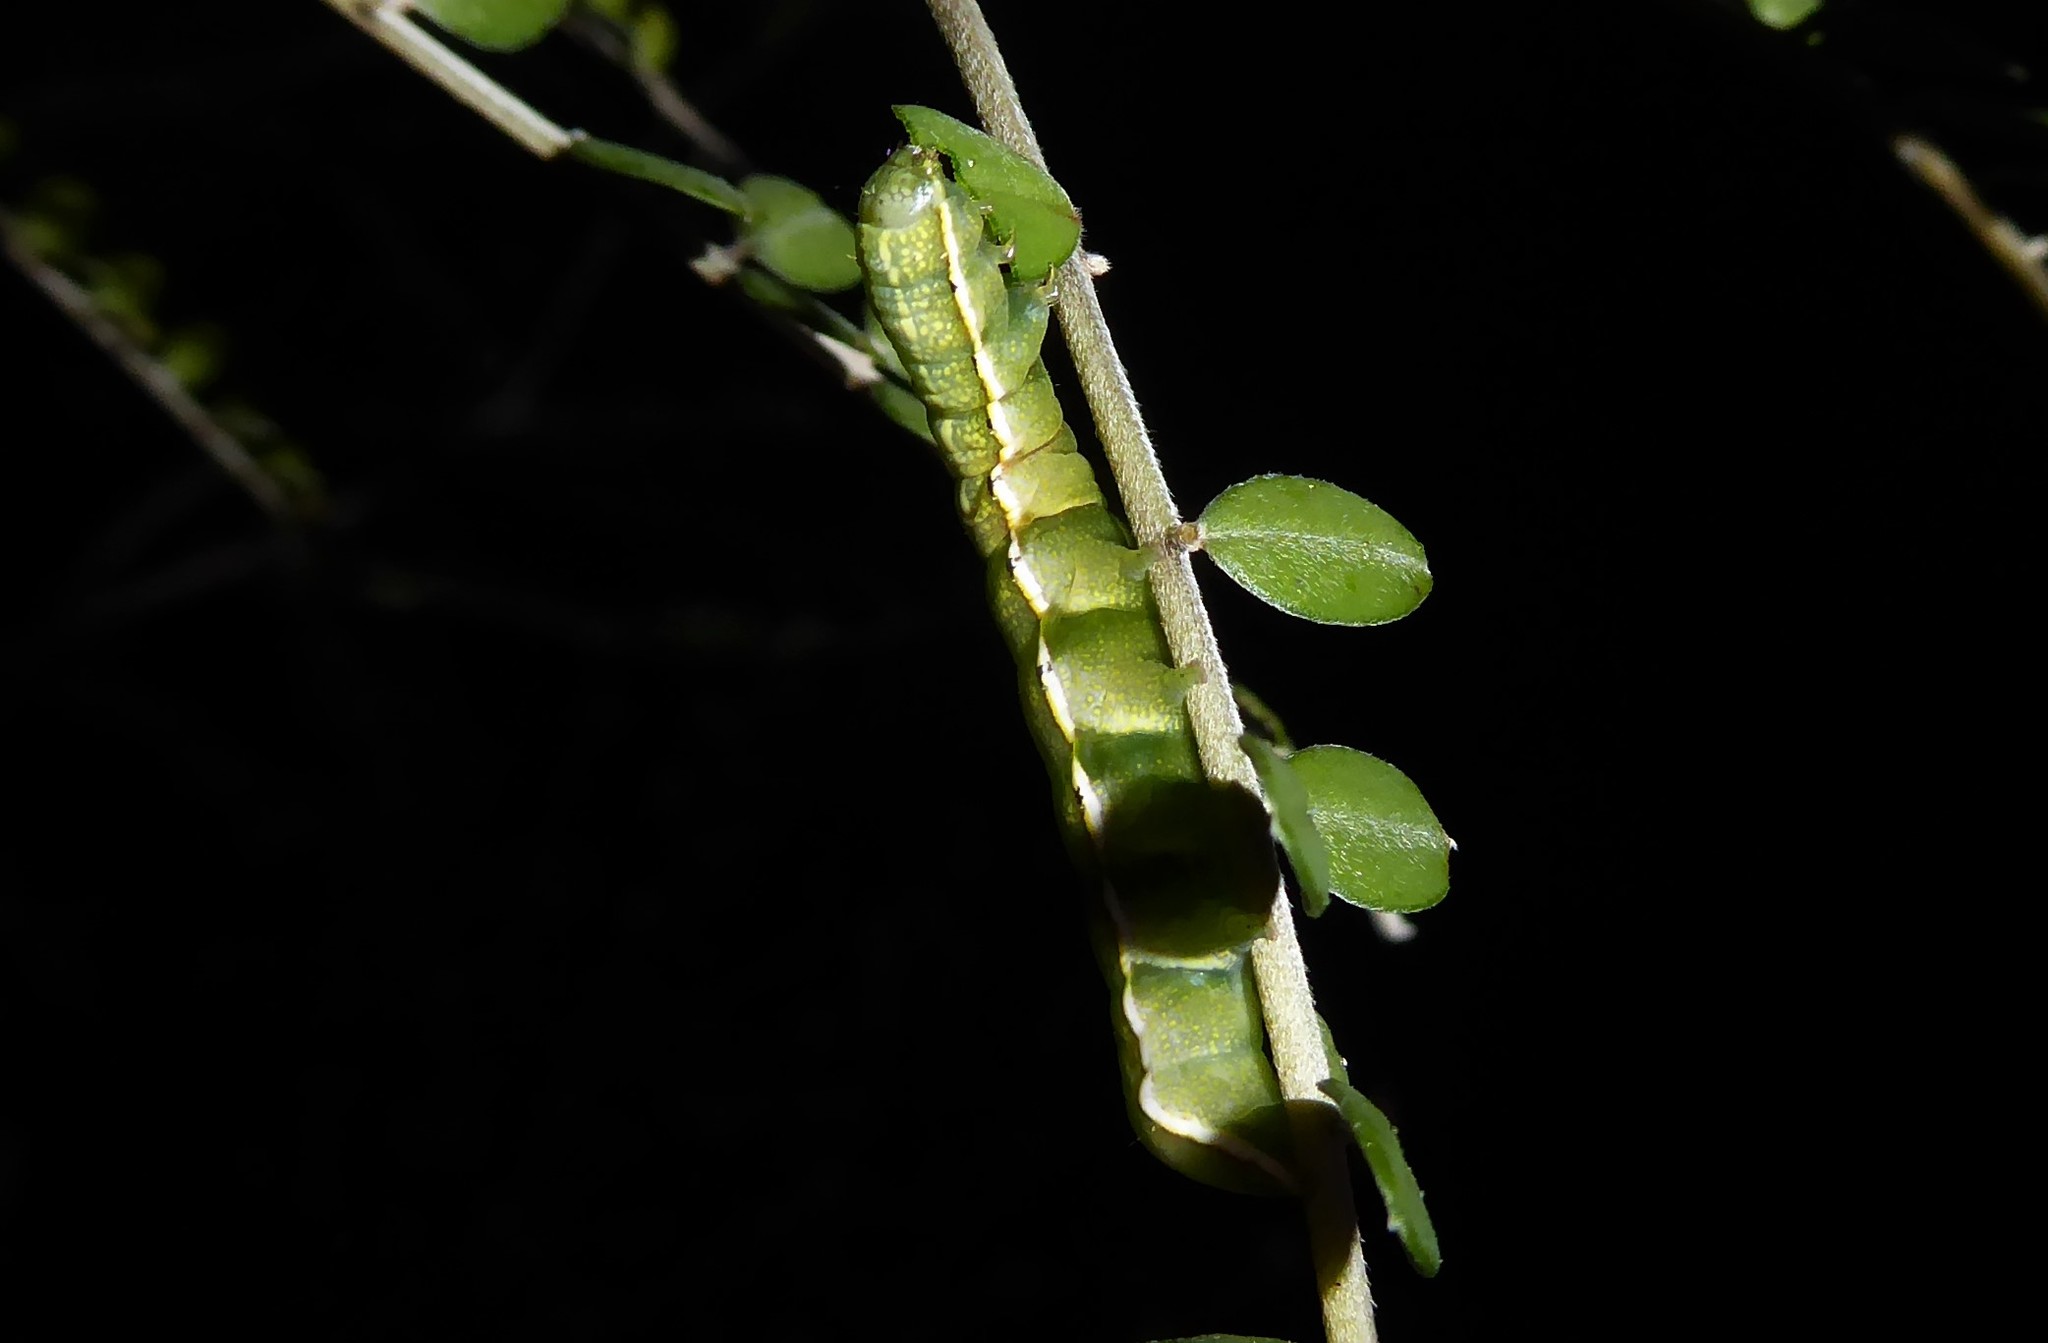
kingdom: Animalia
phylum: Arthropoda
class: Insecta
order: Lepidoptera
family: Noctuidae
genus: Meterana
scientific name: Meterana decorata
